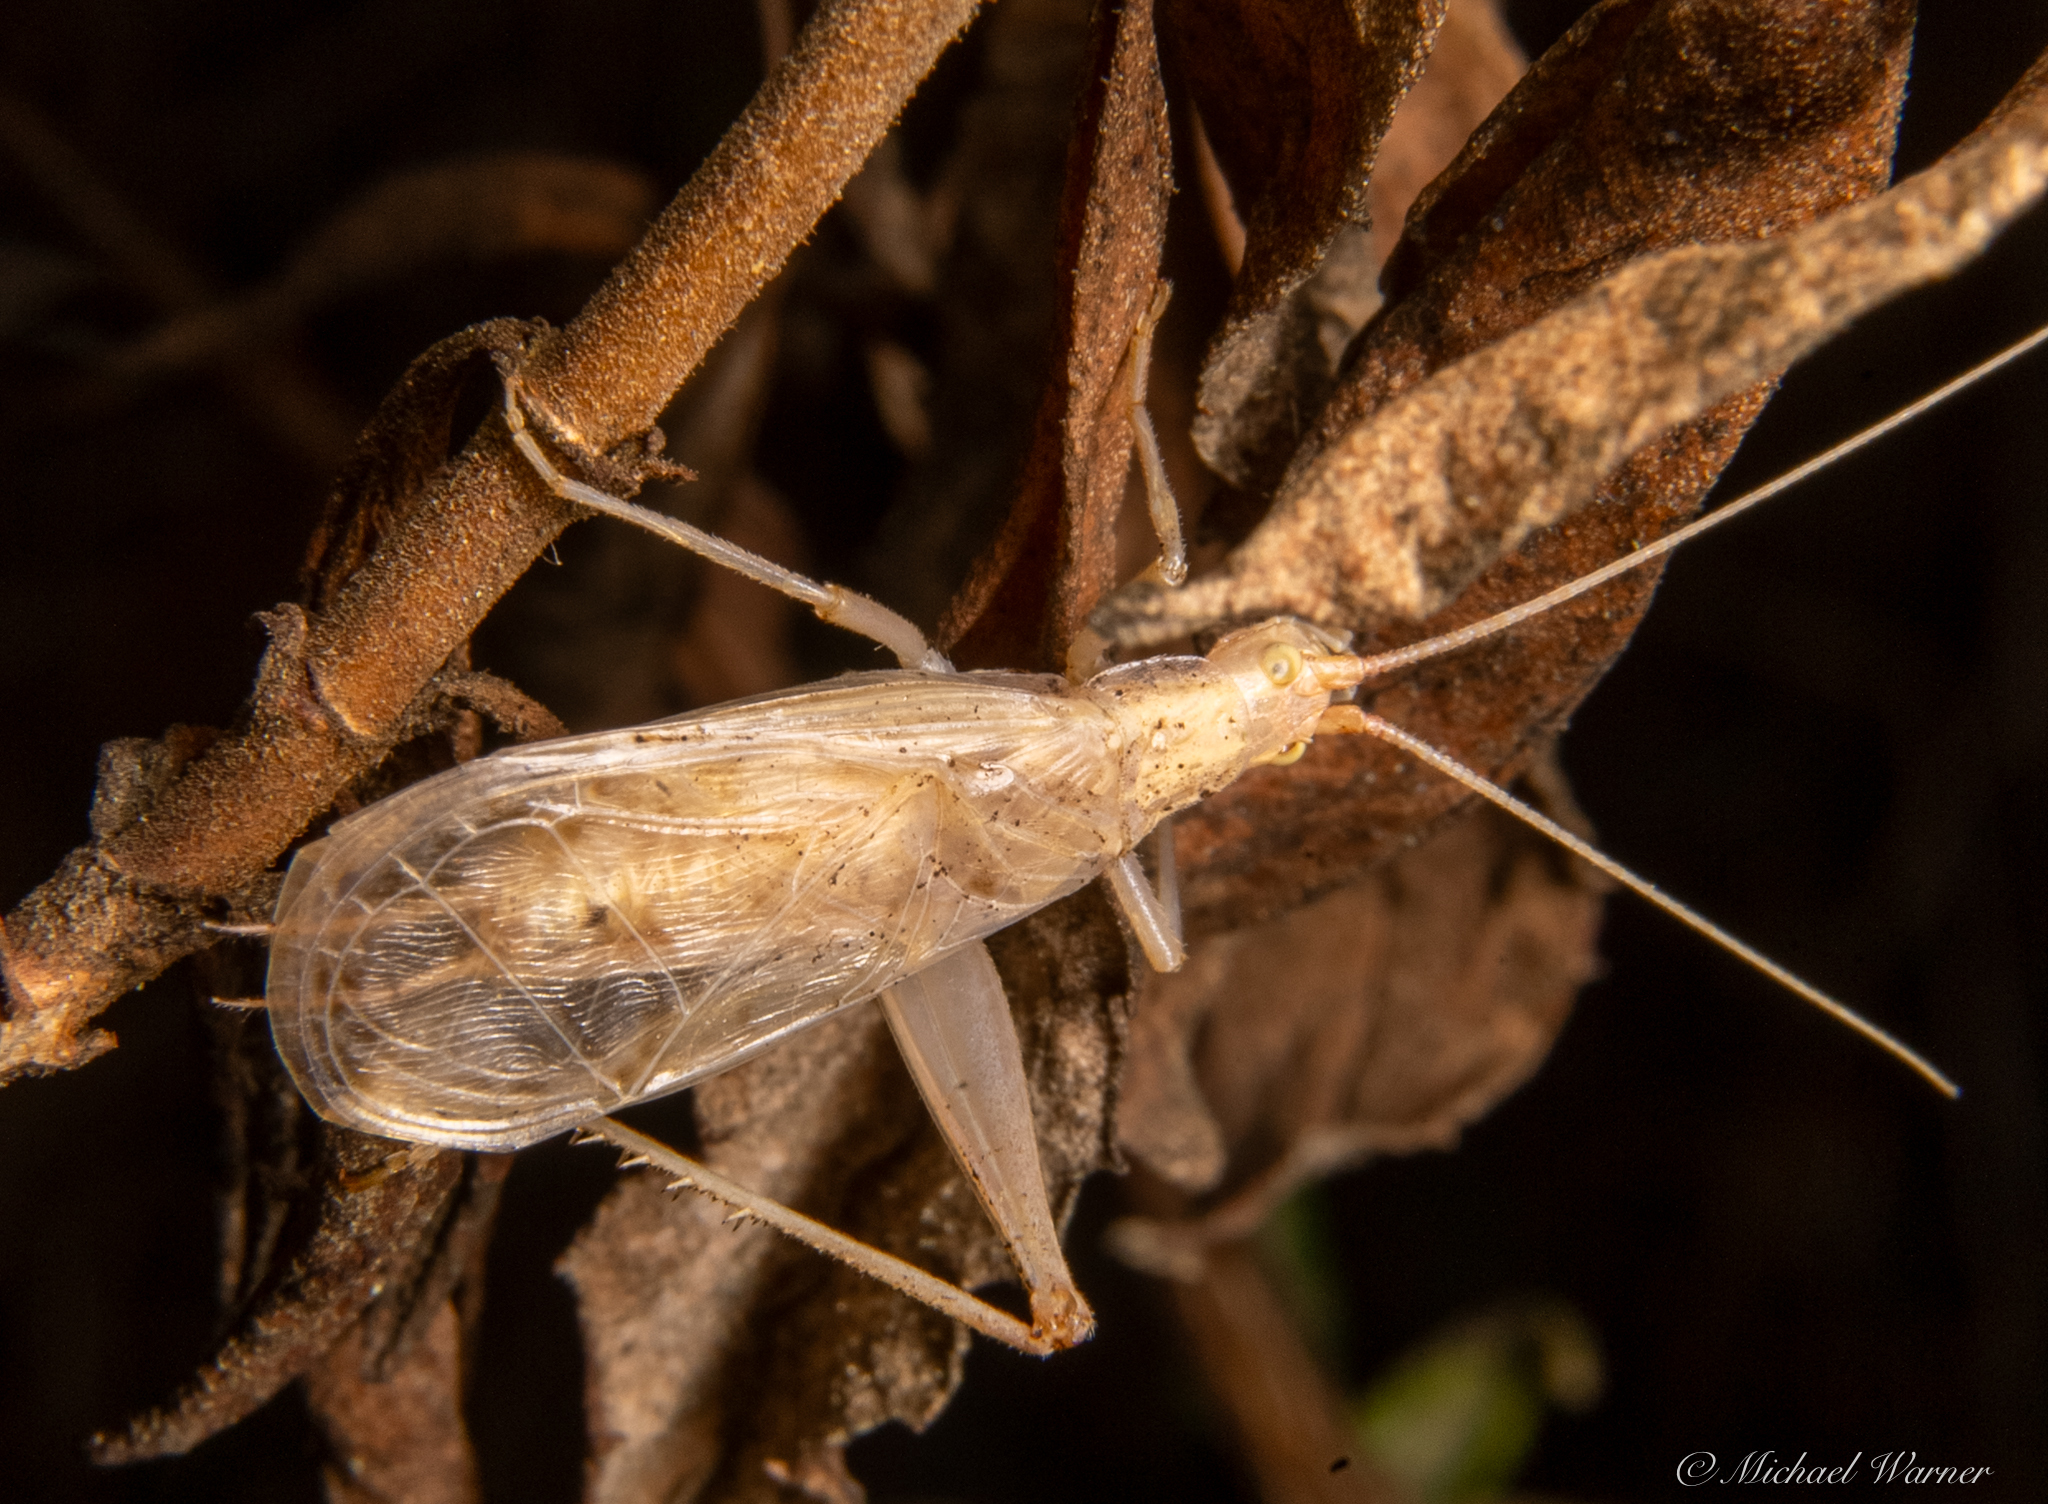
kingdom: Animalia
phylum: Arthropoda
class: Insecta
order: Orthoptera
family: Gryllidae
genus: Oecanthus
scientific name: Oecanthus californicus
